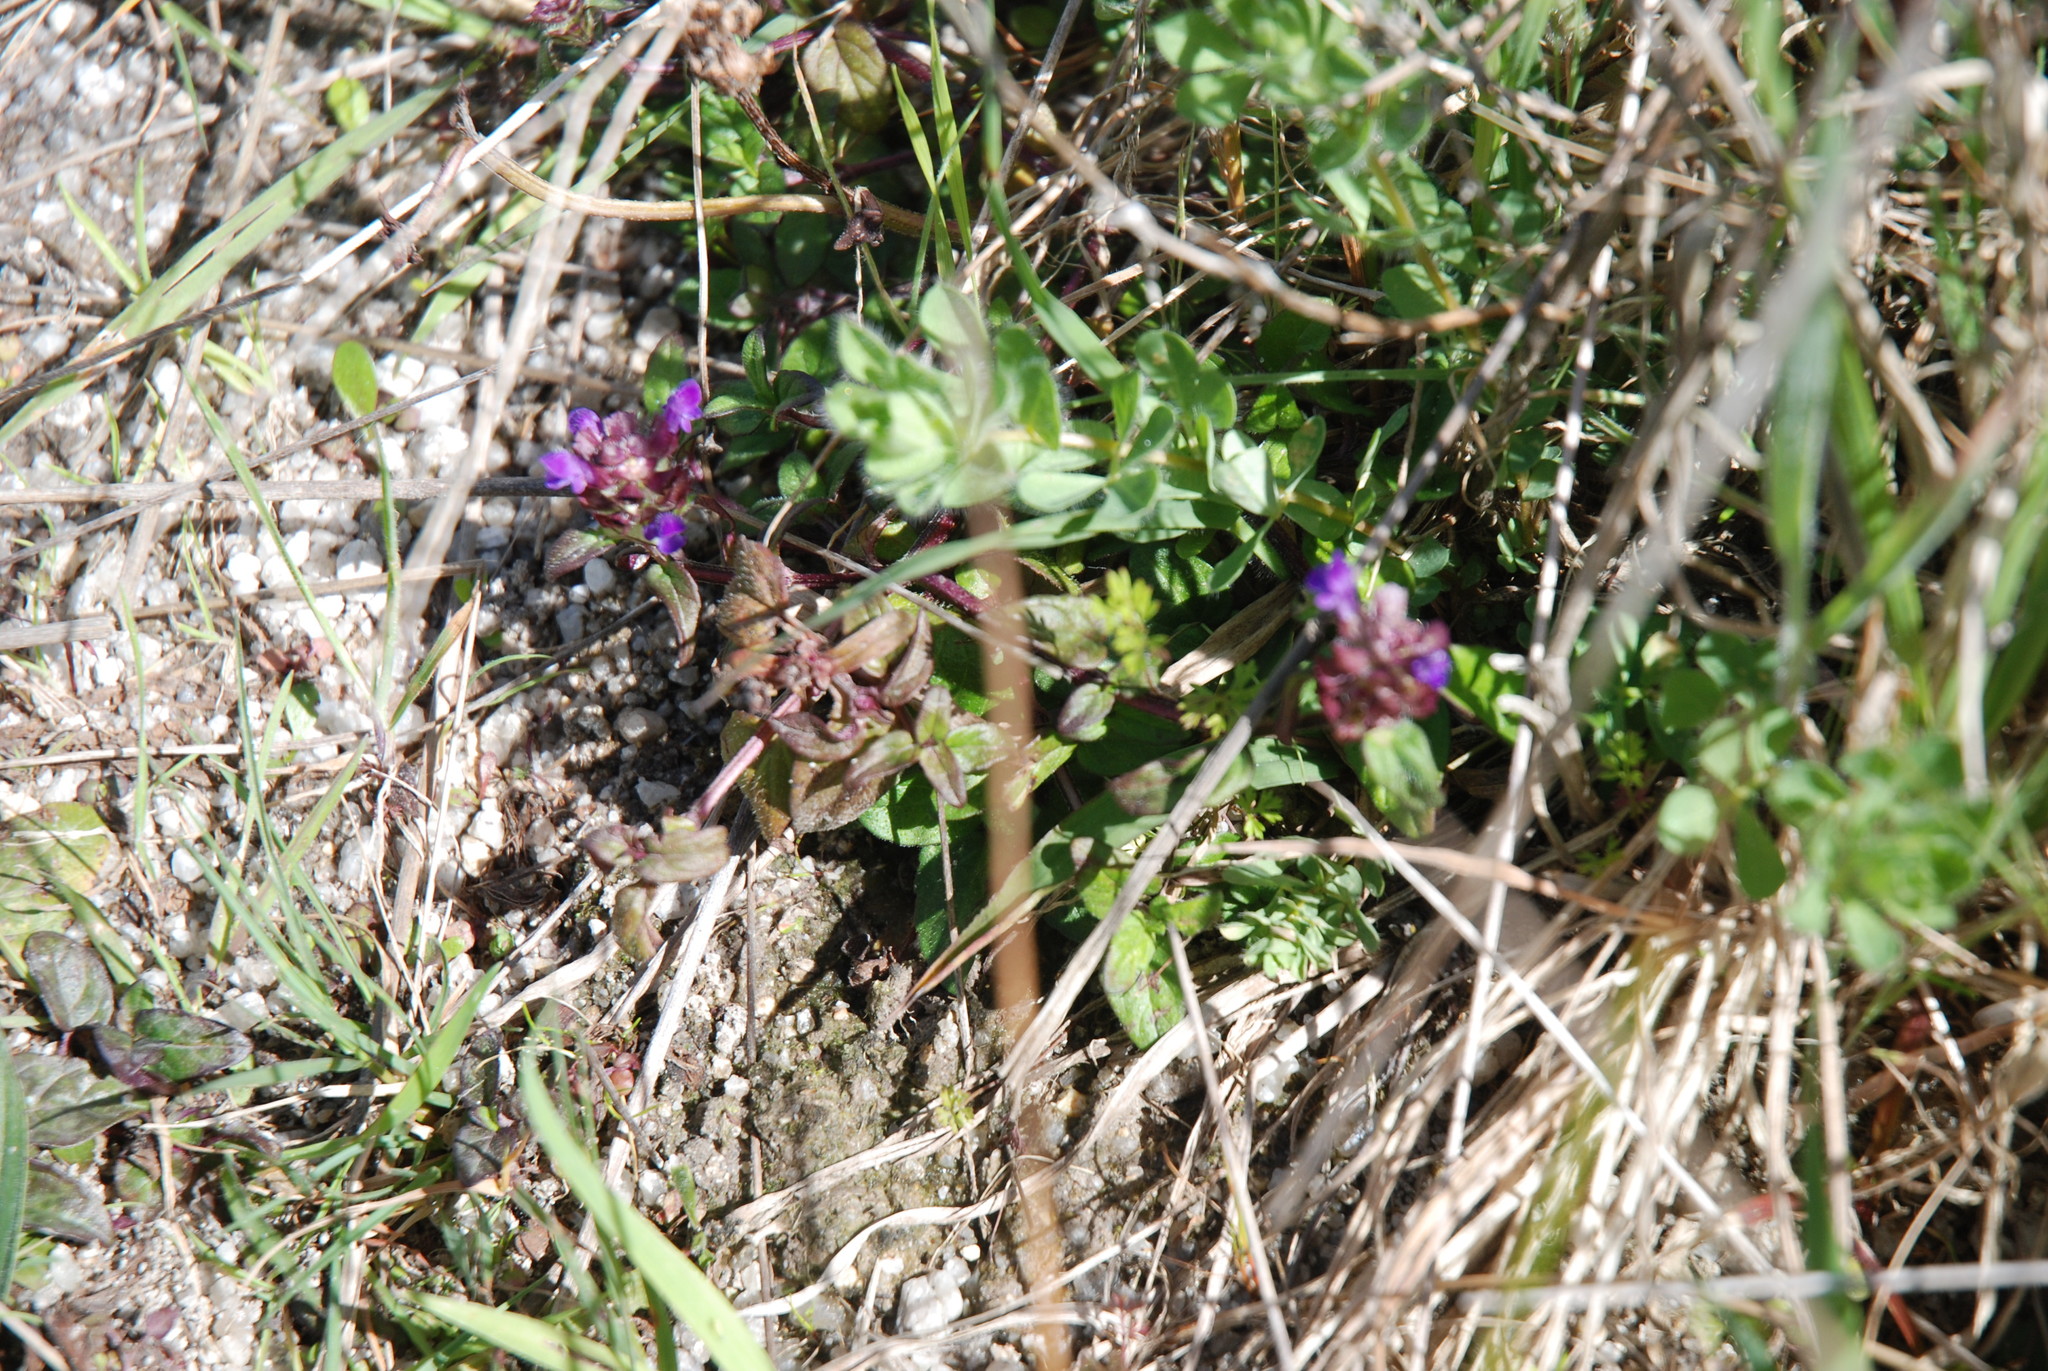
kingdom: Plantae
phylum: Tracheophyta
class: Magnoliopsida
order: Lamiales
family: Lamiaceae
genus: Prunella
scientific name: Prunella vulgaris
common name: Heal-all
